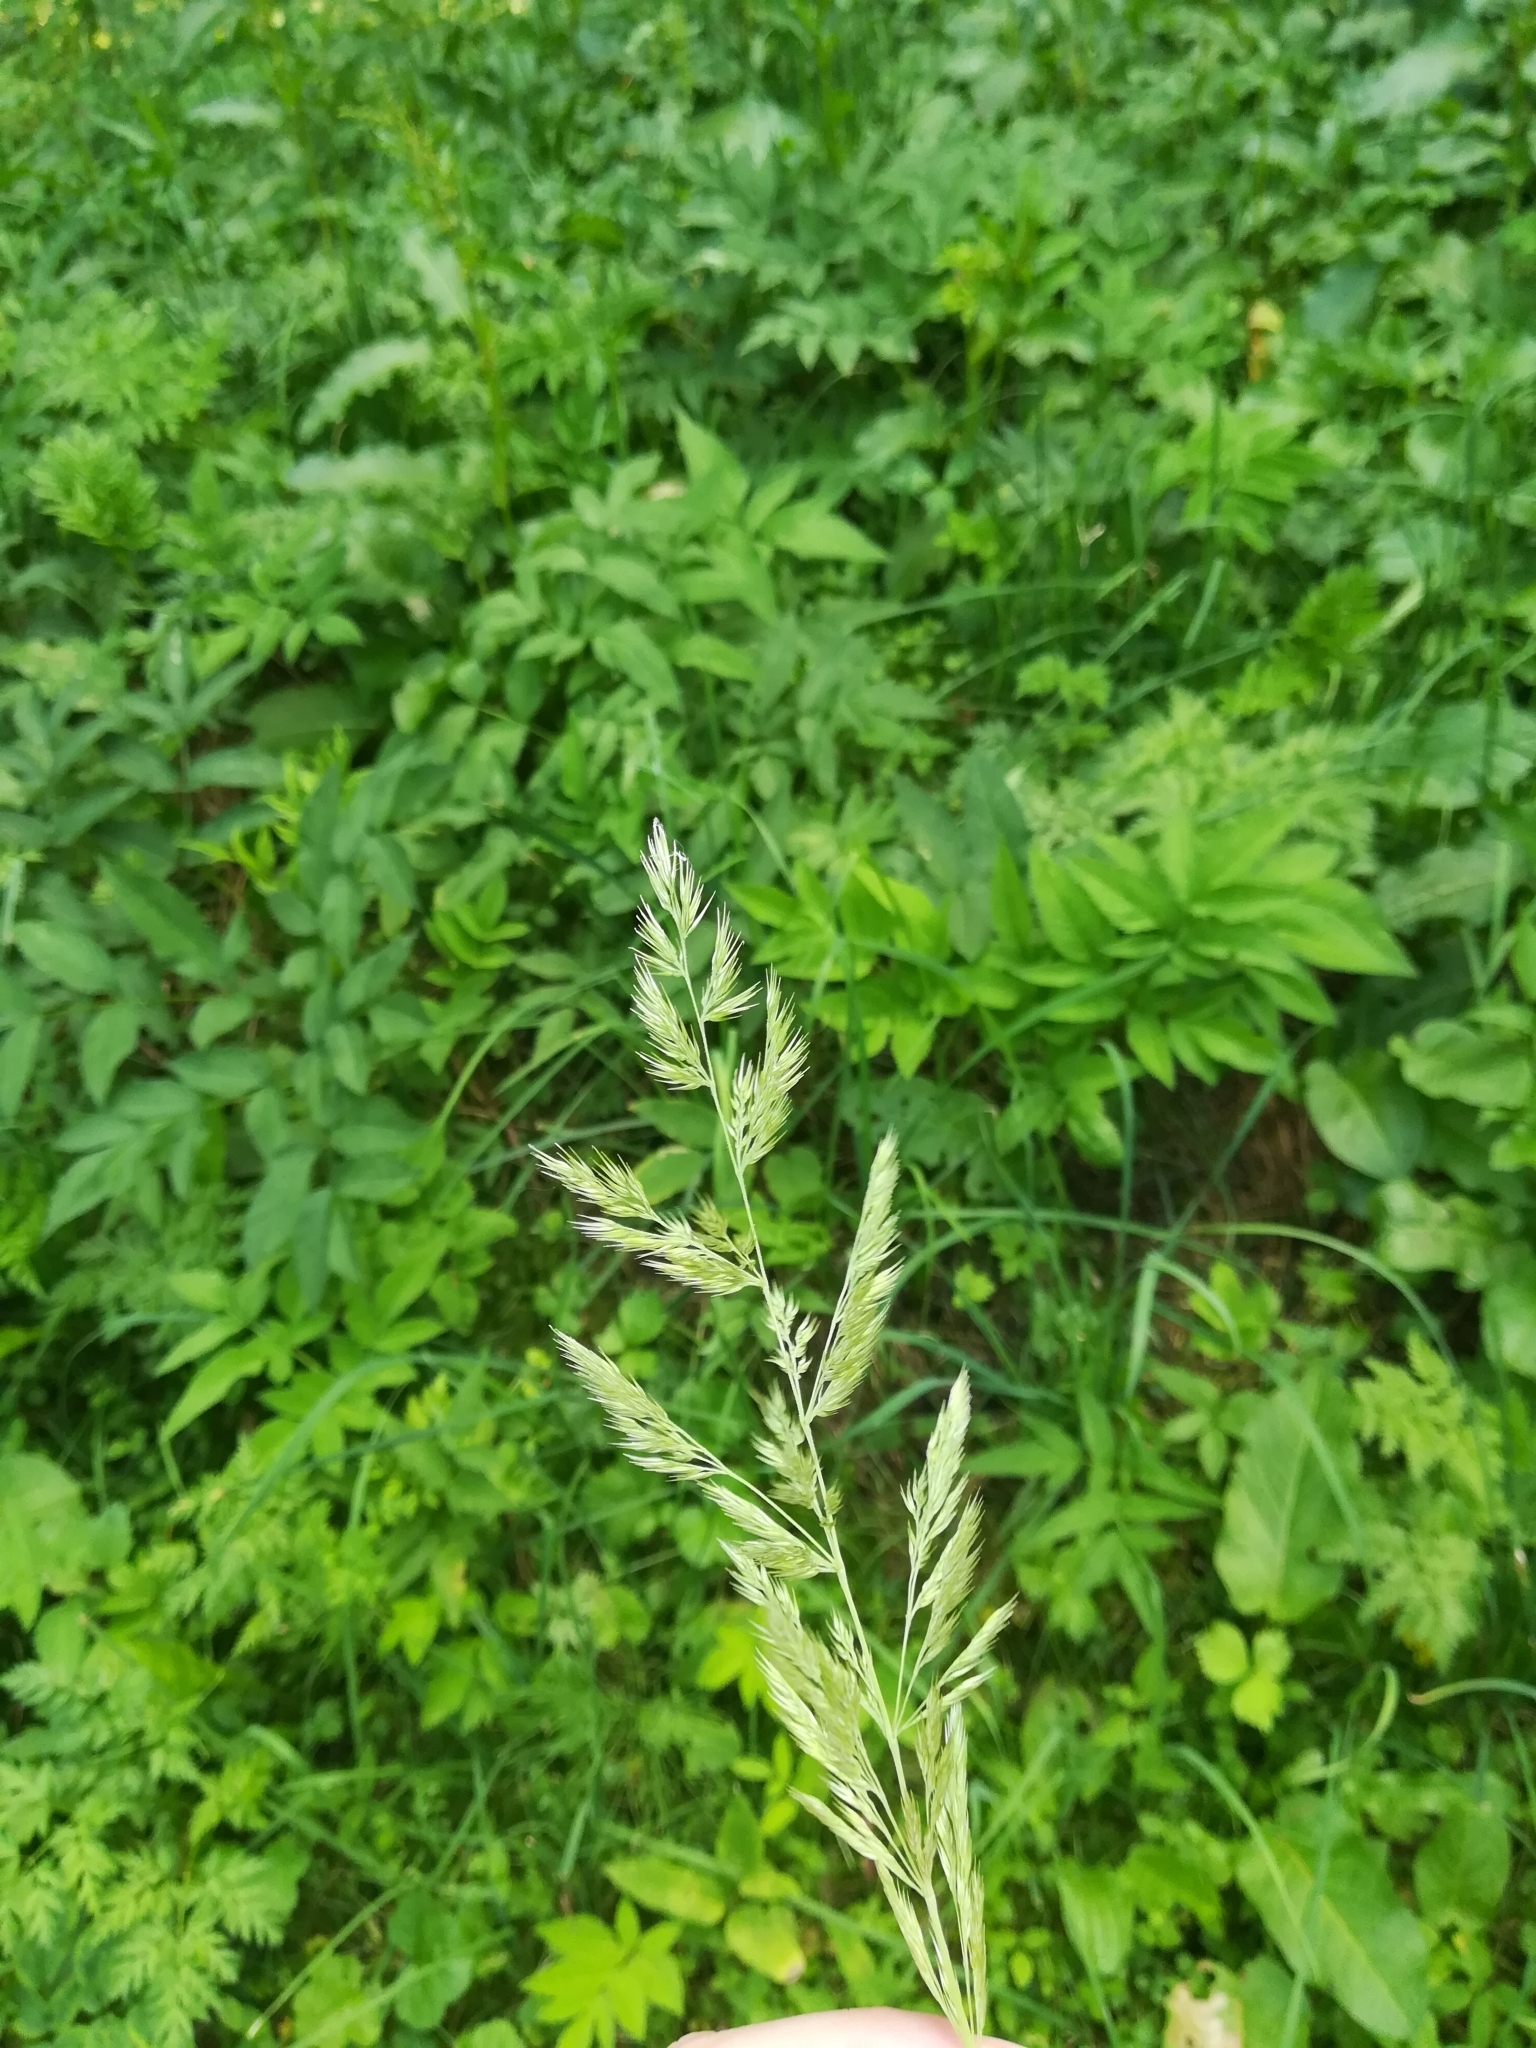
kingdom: Plantae
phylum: Tracheophyta
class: Liliopsida
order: Poales
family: Poaceae
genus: Calamagrostis
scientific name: Calamagrostis epigejos
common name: Wood small-reed
